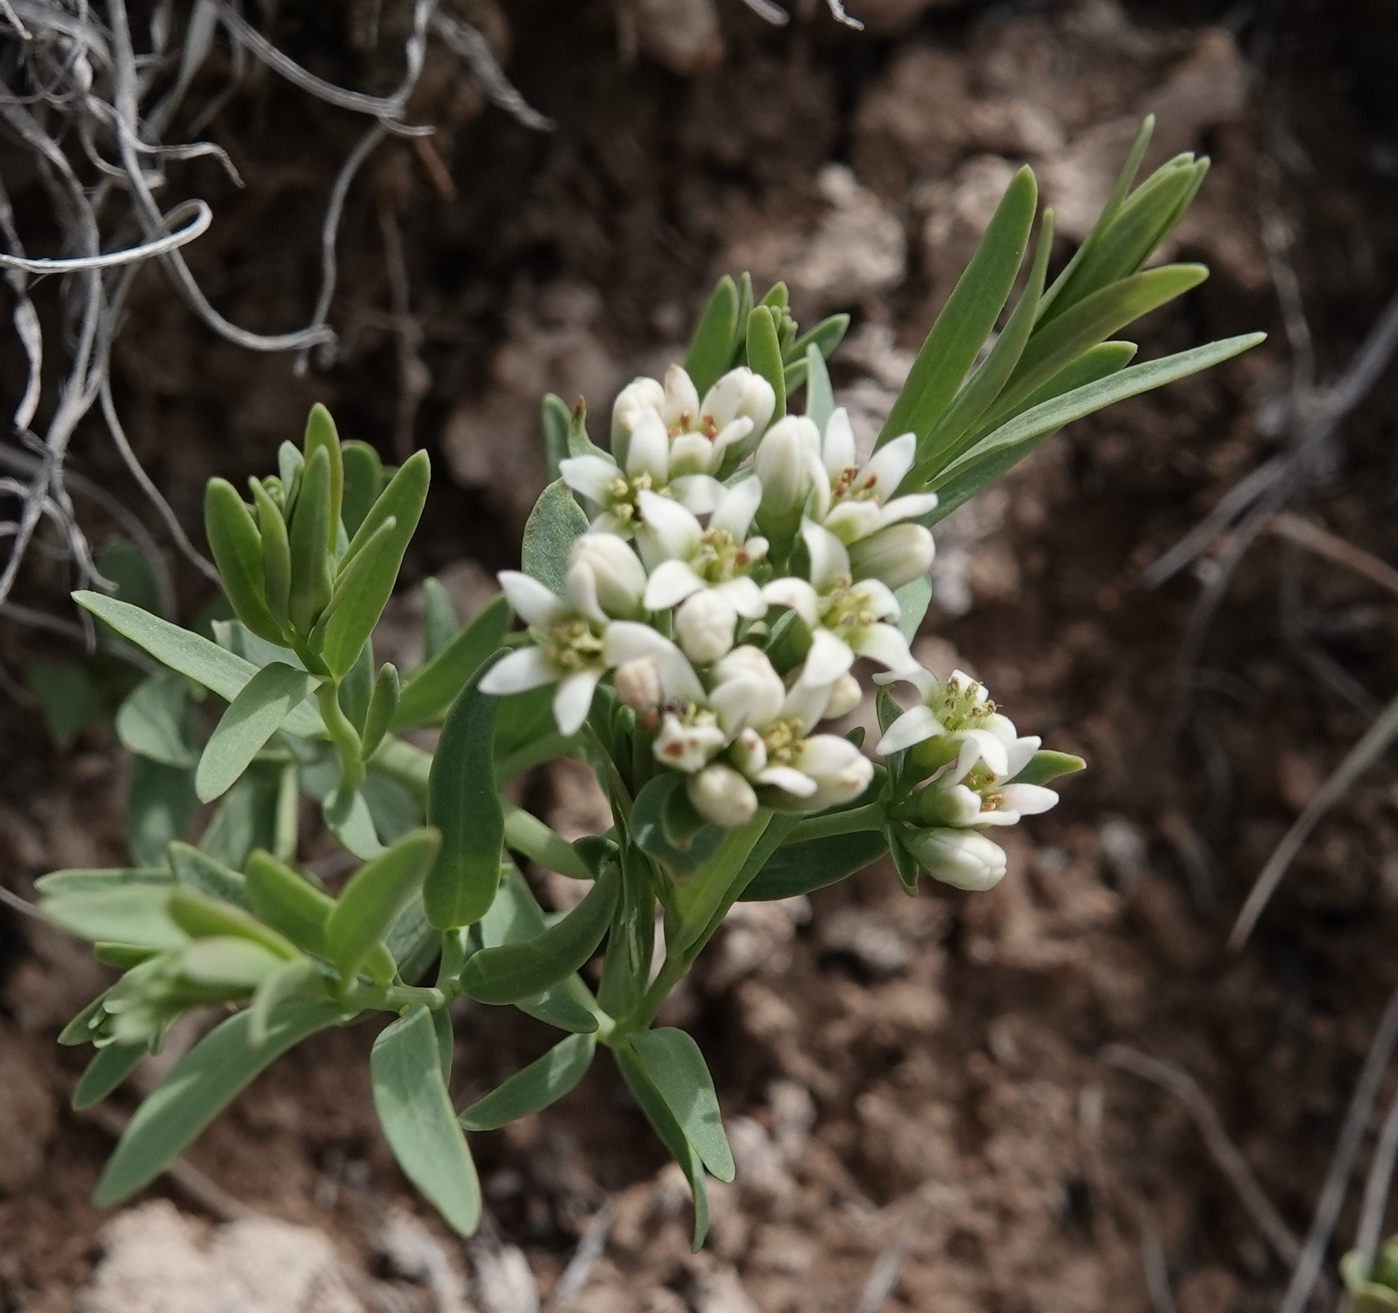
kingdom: Plantae
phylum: Tracheophyta
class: Magnoliopsida
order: Santalales
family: Comandraceae
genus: Comandra
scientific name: Comandra umbellata
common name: Bastard toadflax
